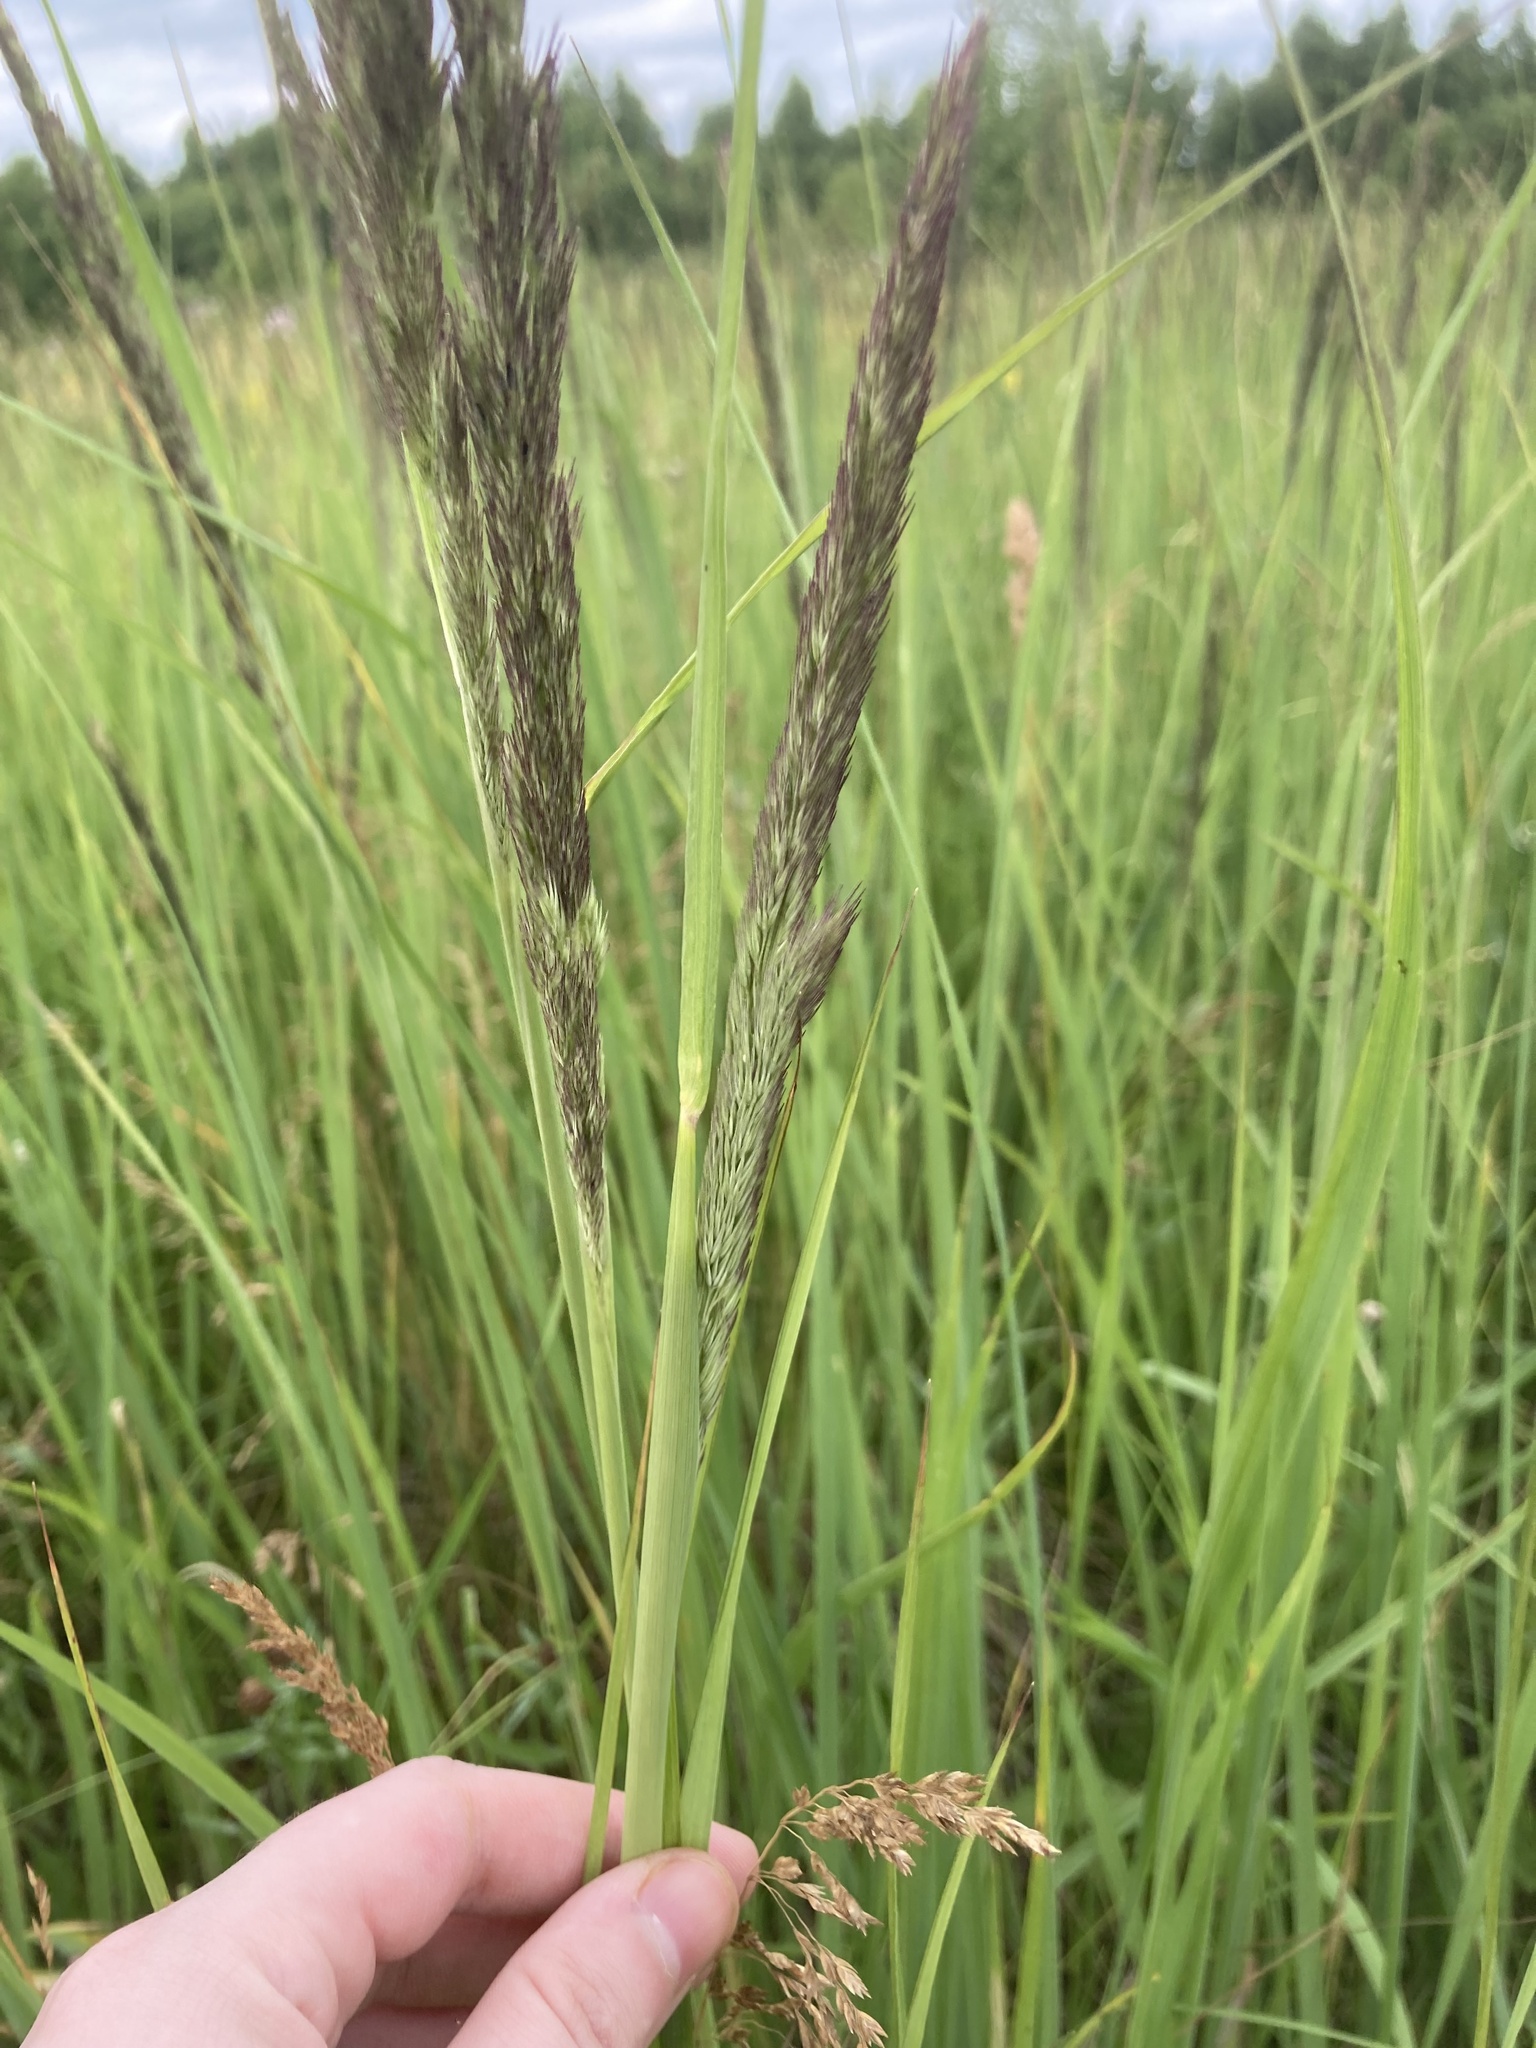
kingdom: Plantae
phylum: Tracheophyta
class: Liliopsida
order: Poales
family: Poaceae
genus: Calamagrostis
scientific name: Calamagrostis epigejos
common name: Wood small-reed
